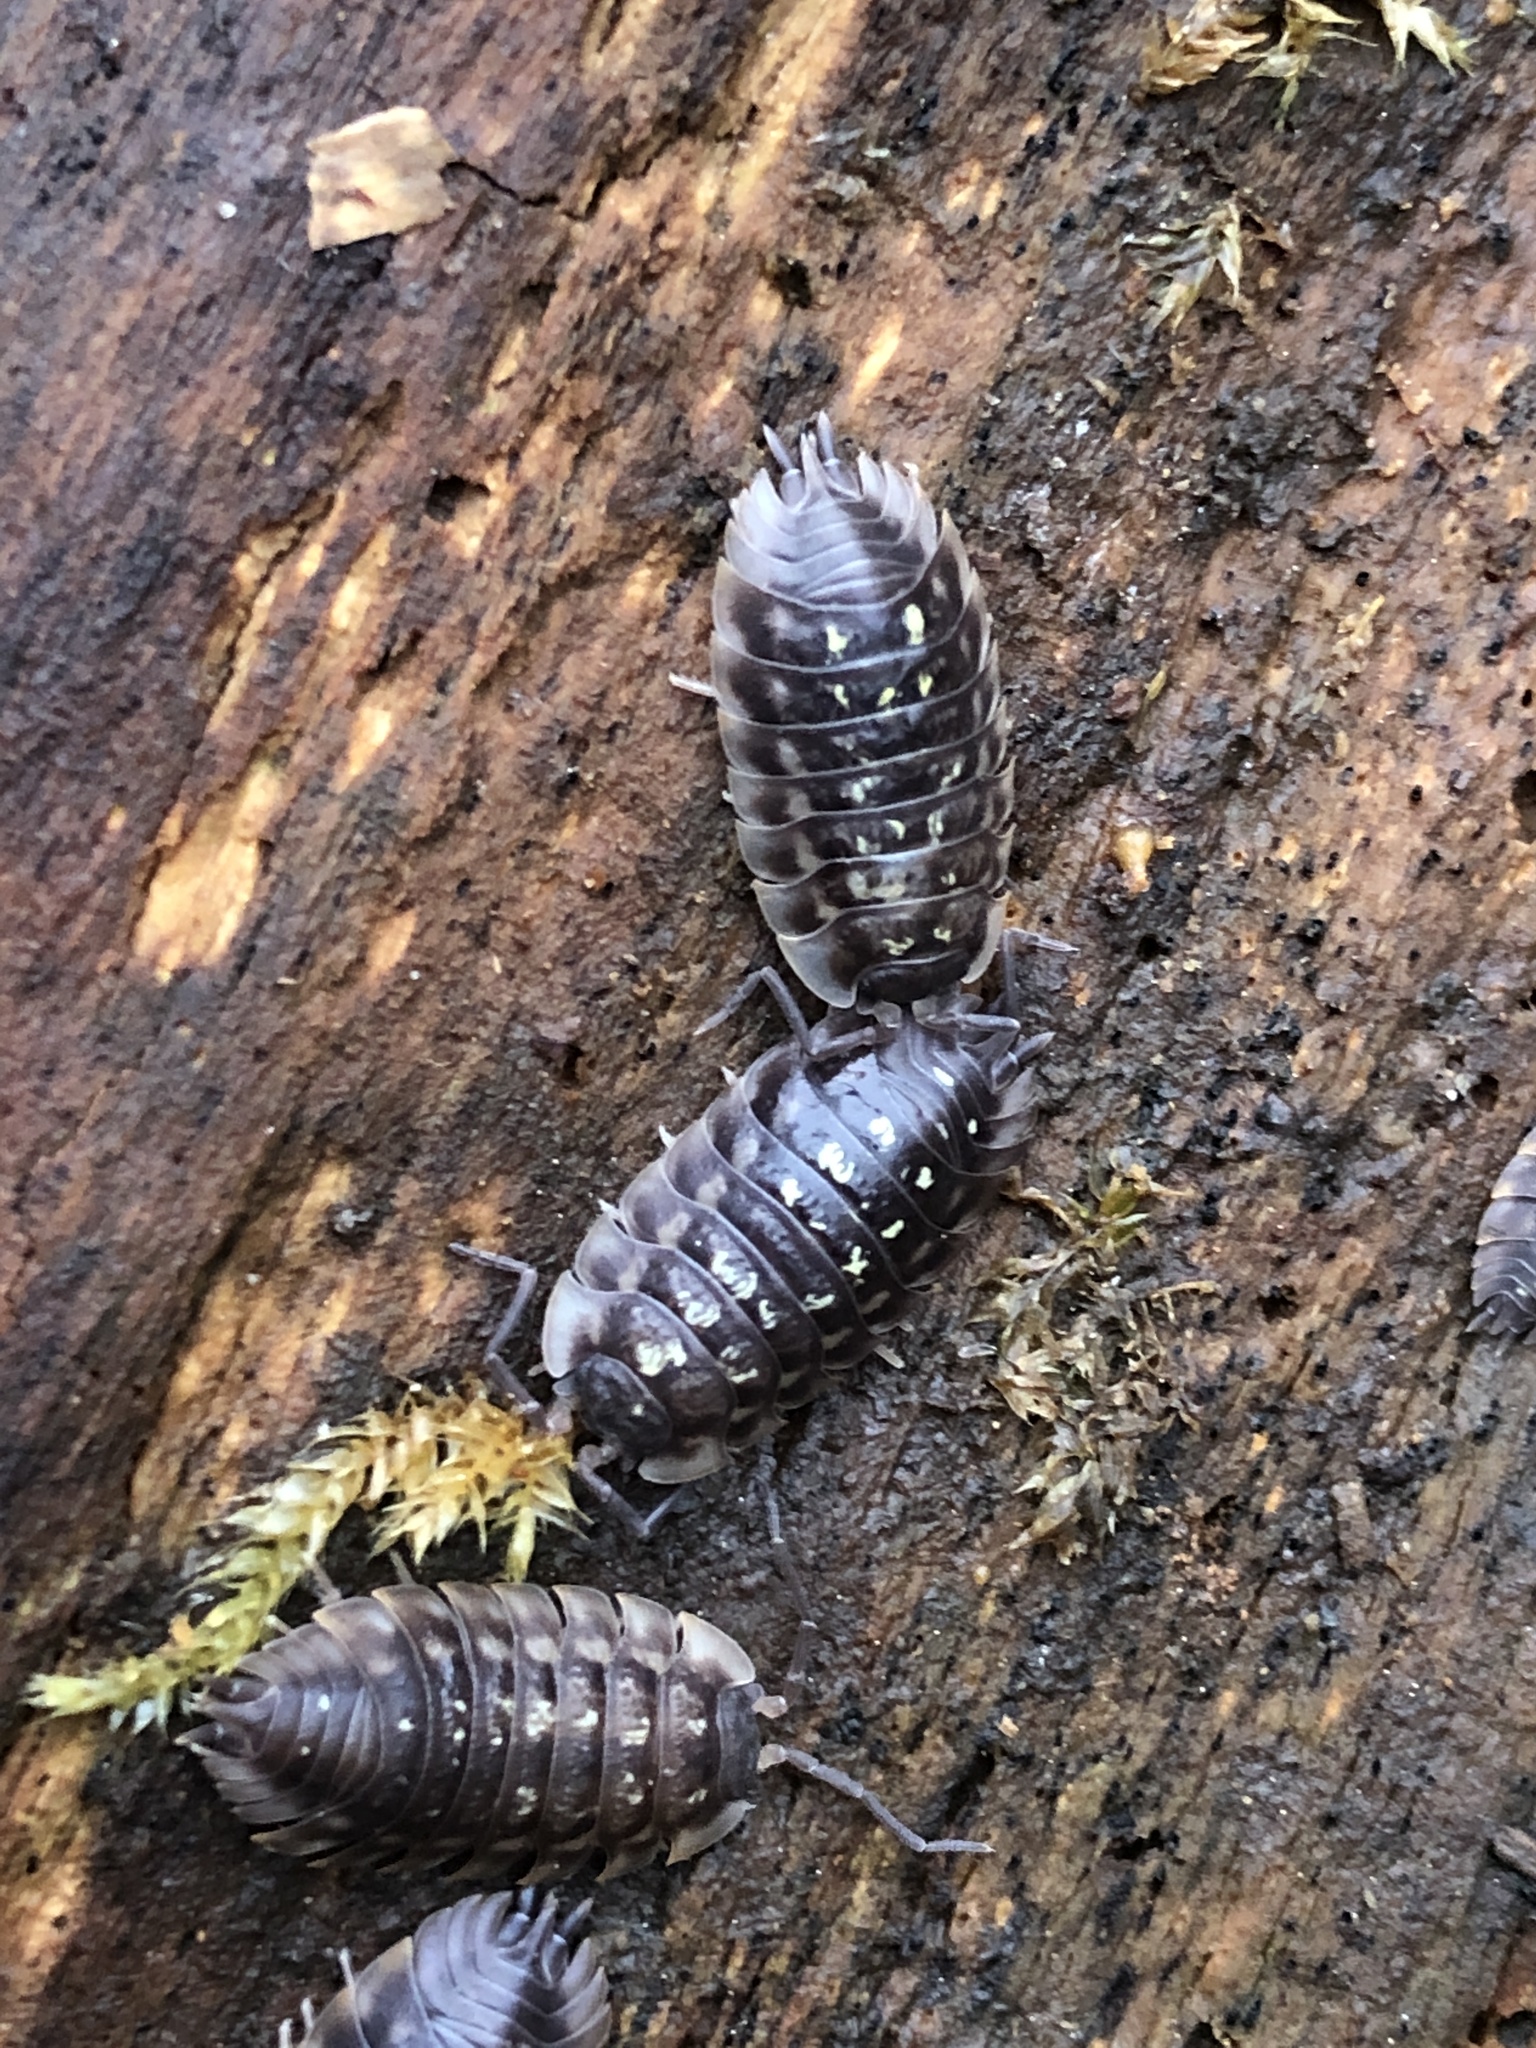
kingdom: Animalia
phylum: Arthropoda
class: Malacostraca
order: Isopoda
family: Oniscidae
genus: Oniscus
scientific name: Oniscus asellus
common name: Common shiny woodlouse
